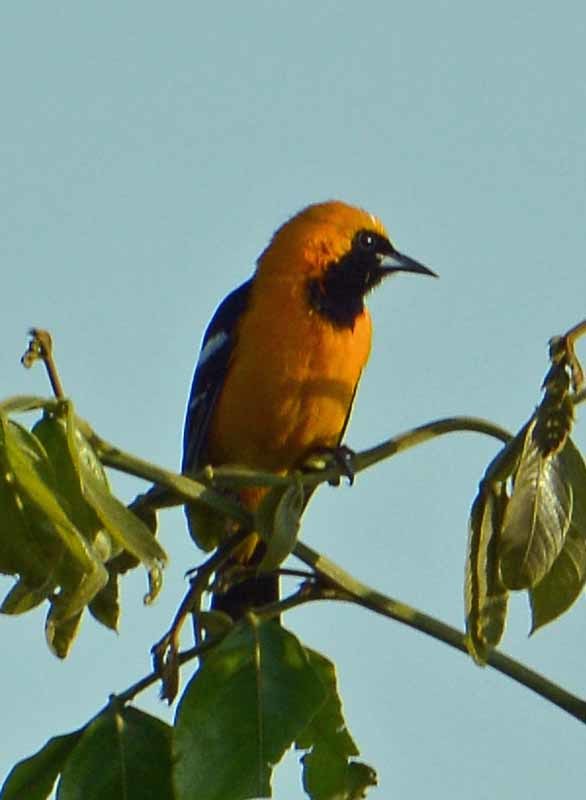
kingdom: Animalia
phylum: Chordata
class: Aves
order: Passeriformes
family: Icteridae
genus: Icterus
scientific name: Icterus cucullatus
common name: Hooded oriole
